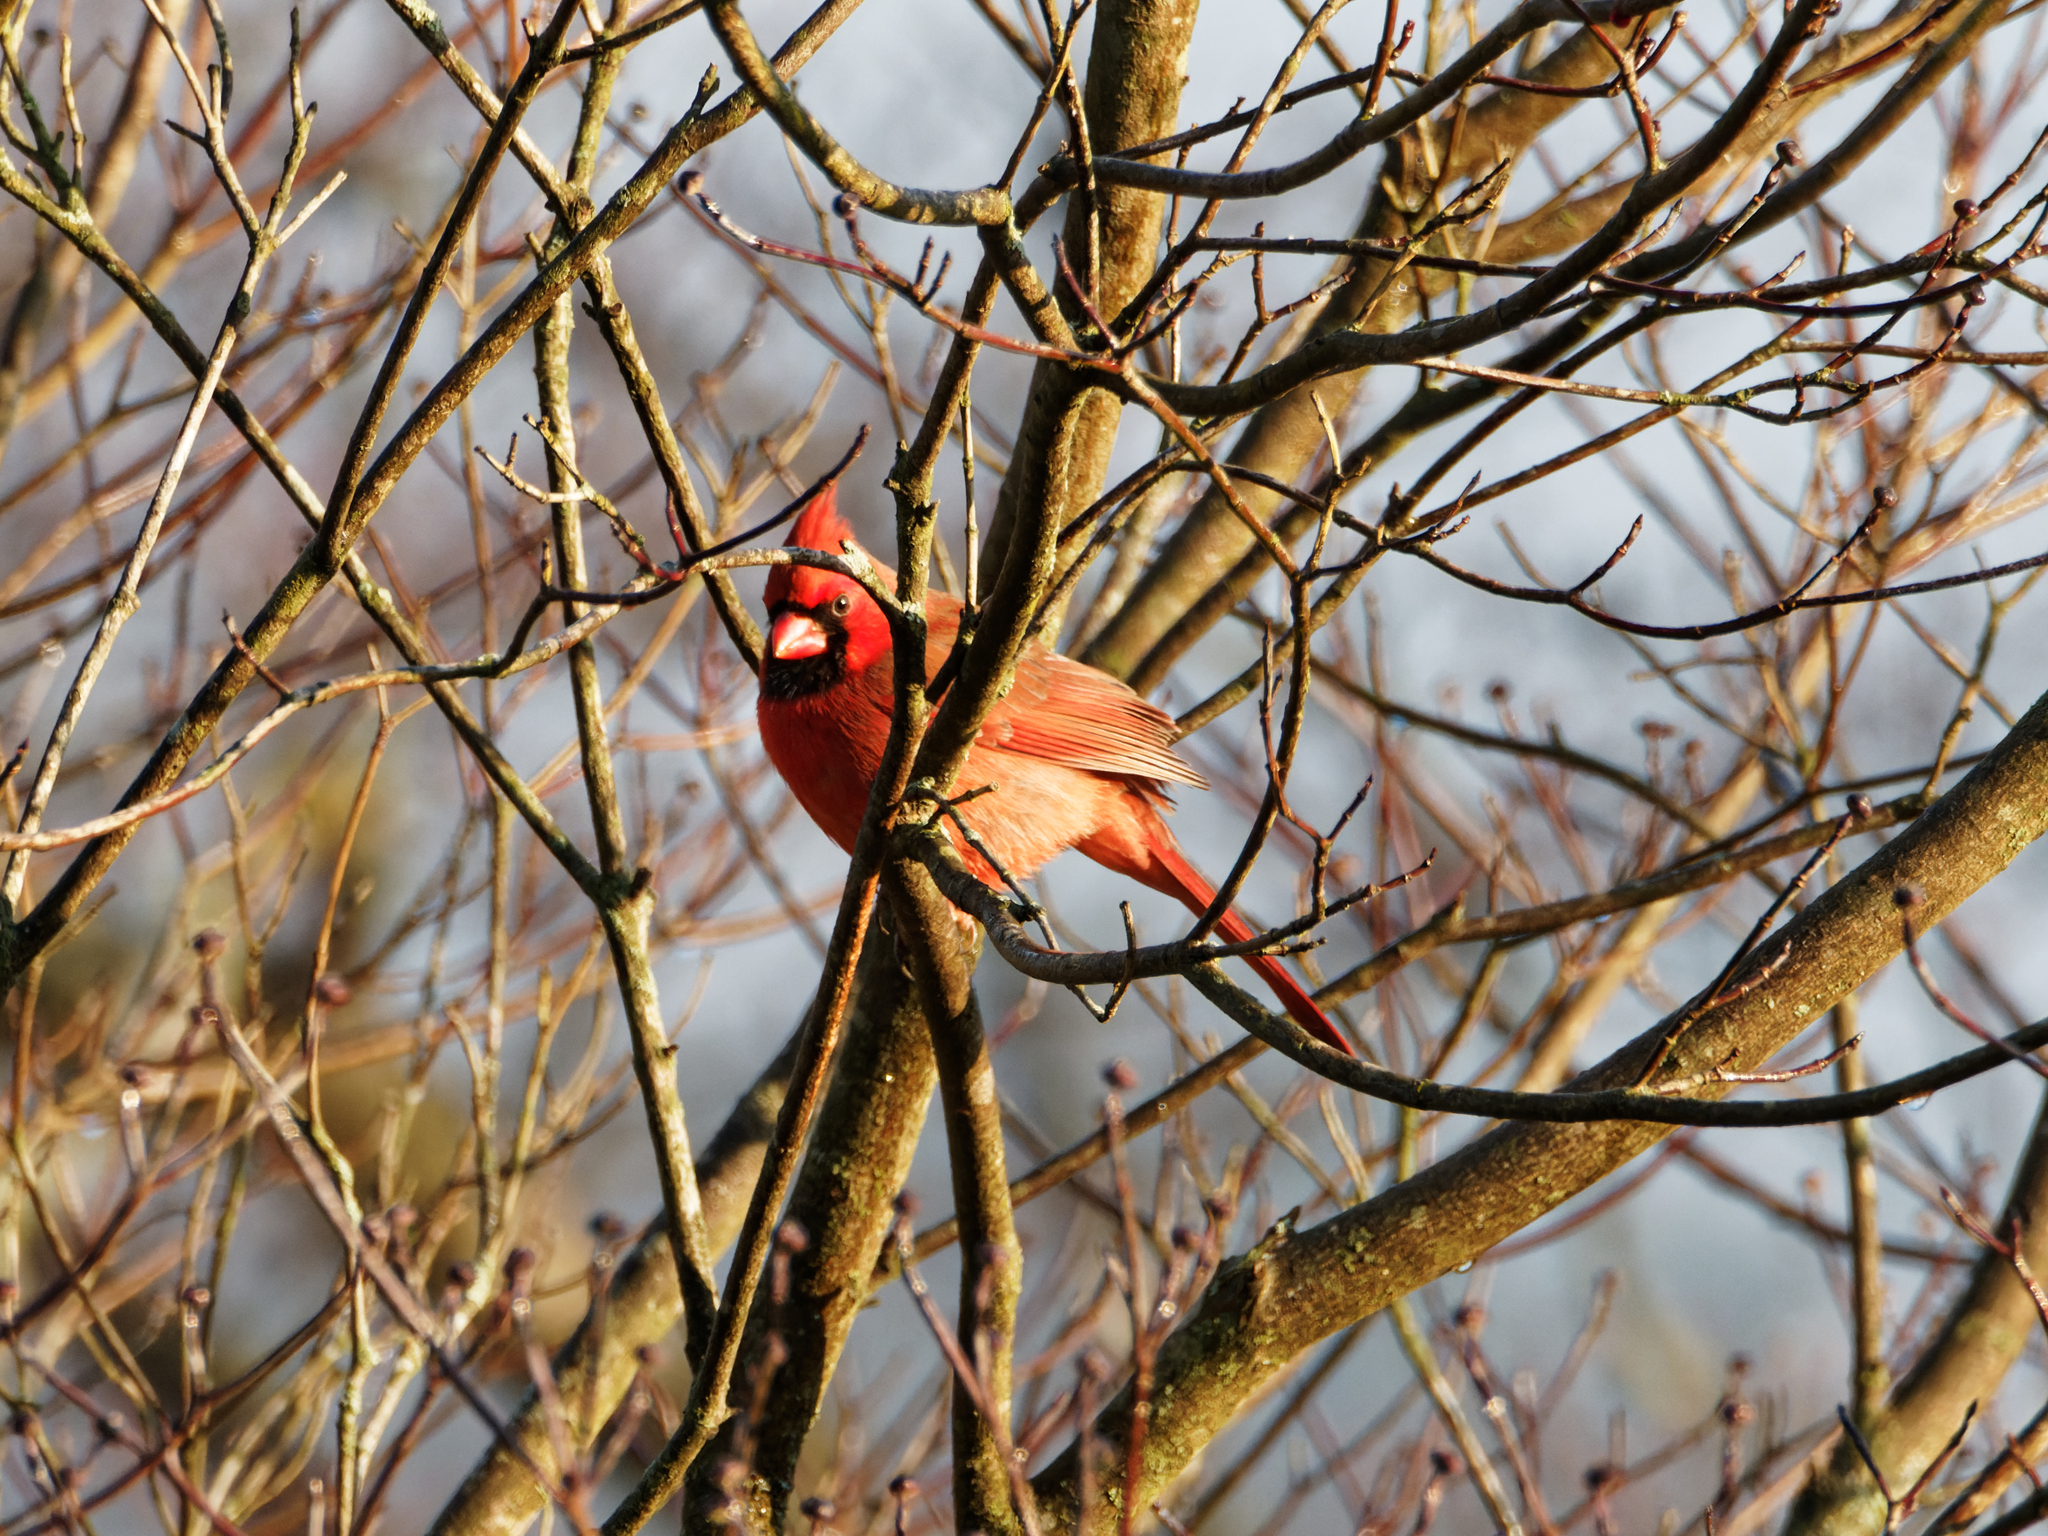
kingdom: Animalia
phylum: Chordata
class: Aves
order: Passeriformes
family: Cardinalidae
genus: Cardinalis
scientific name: Cardinalis cardinalis
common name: Northern cardinal
